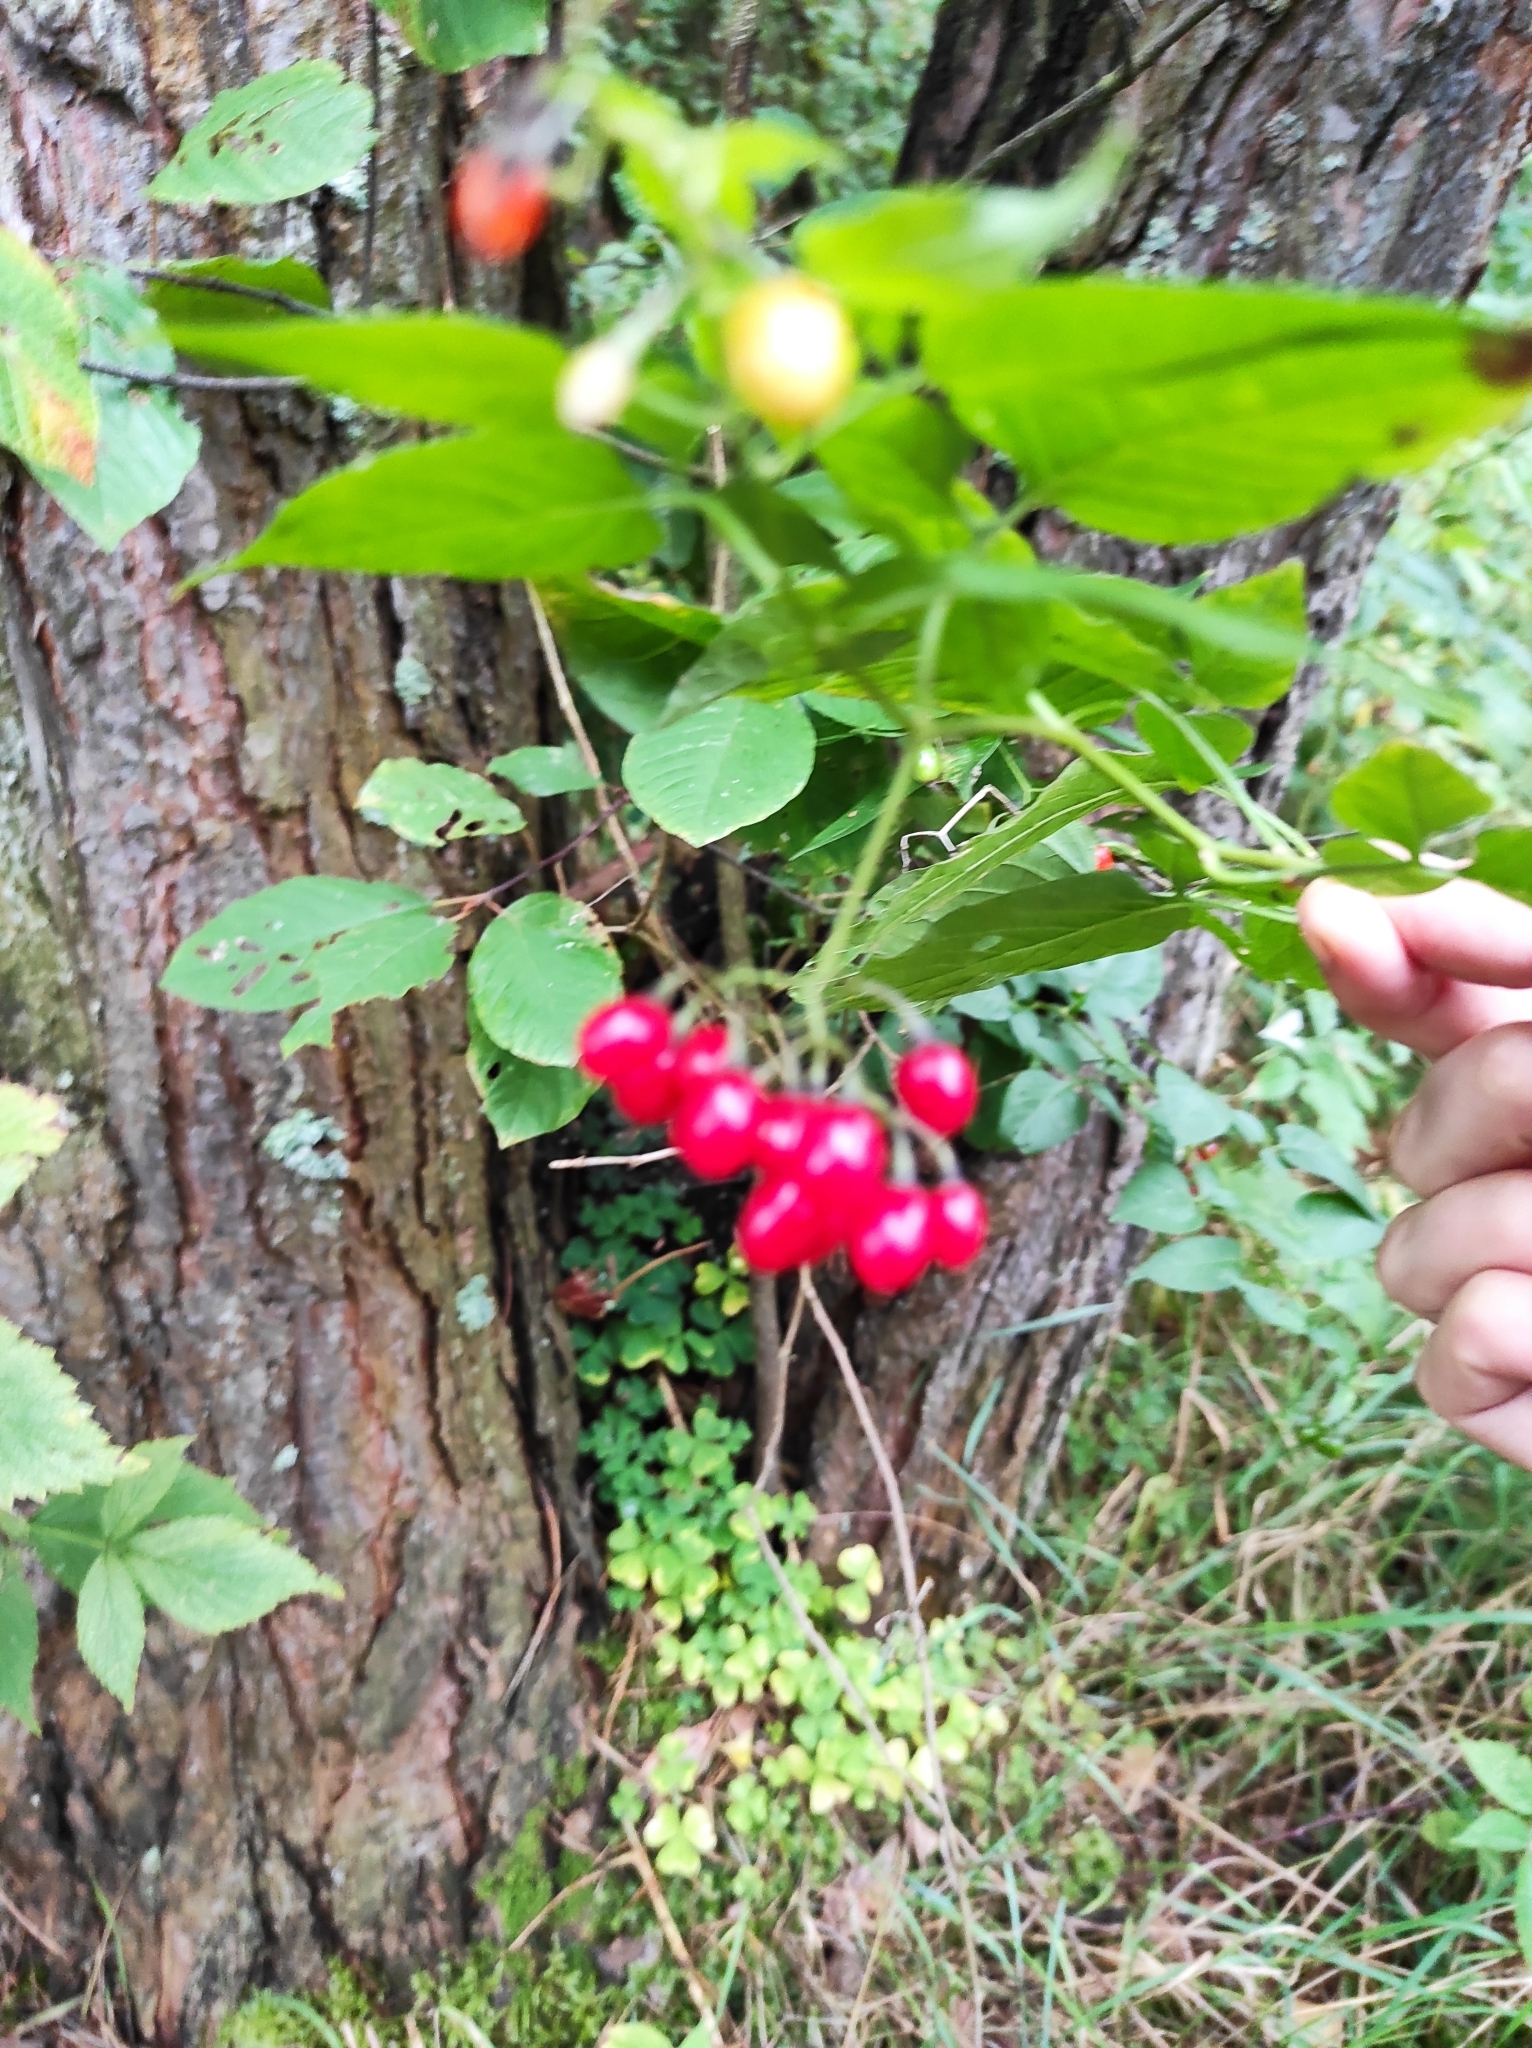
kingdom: Plantae
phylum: Tracheophyta
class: Magnoliopsida
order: Solanales
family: Solanaceae
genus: Solanum
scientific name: Solanum dulcamara
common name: Climbing nightshade
